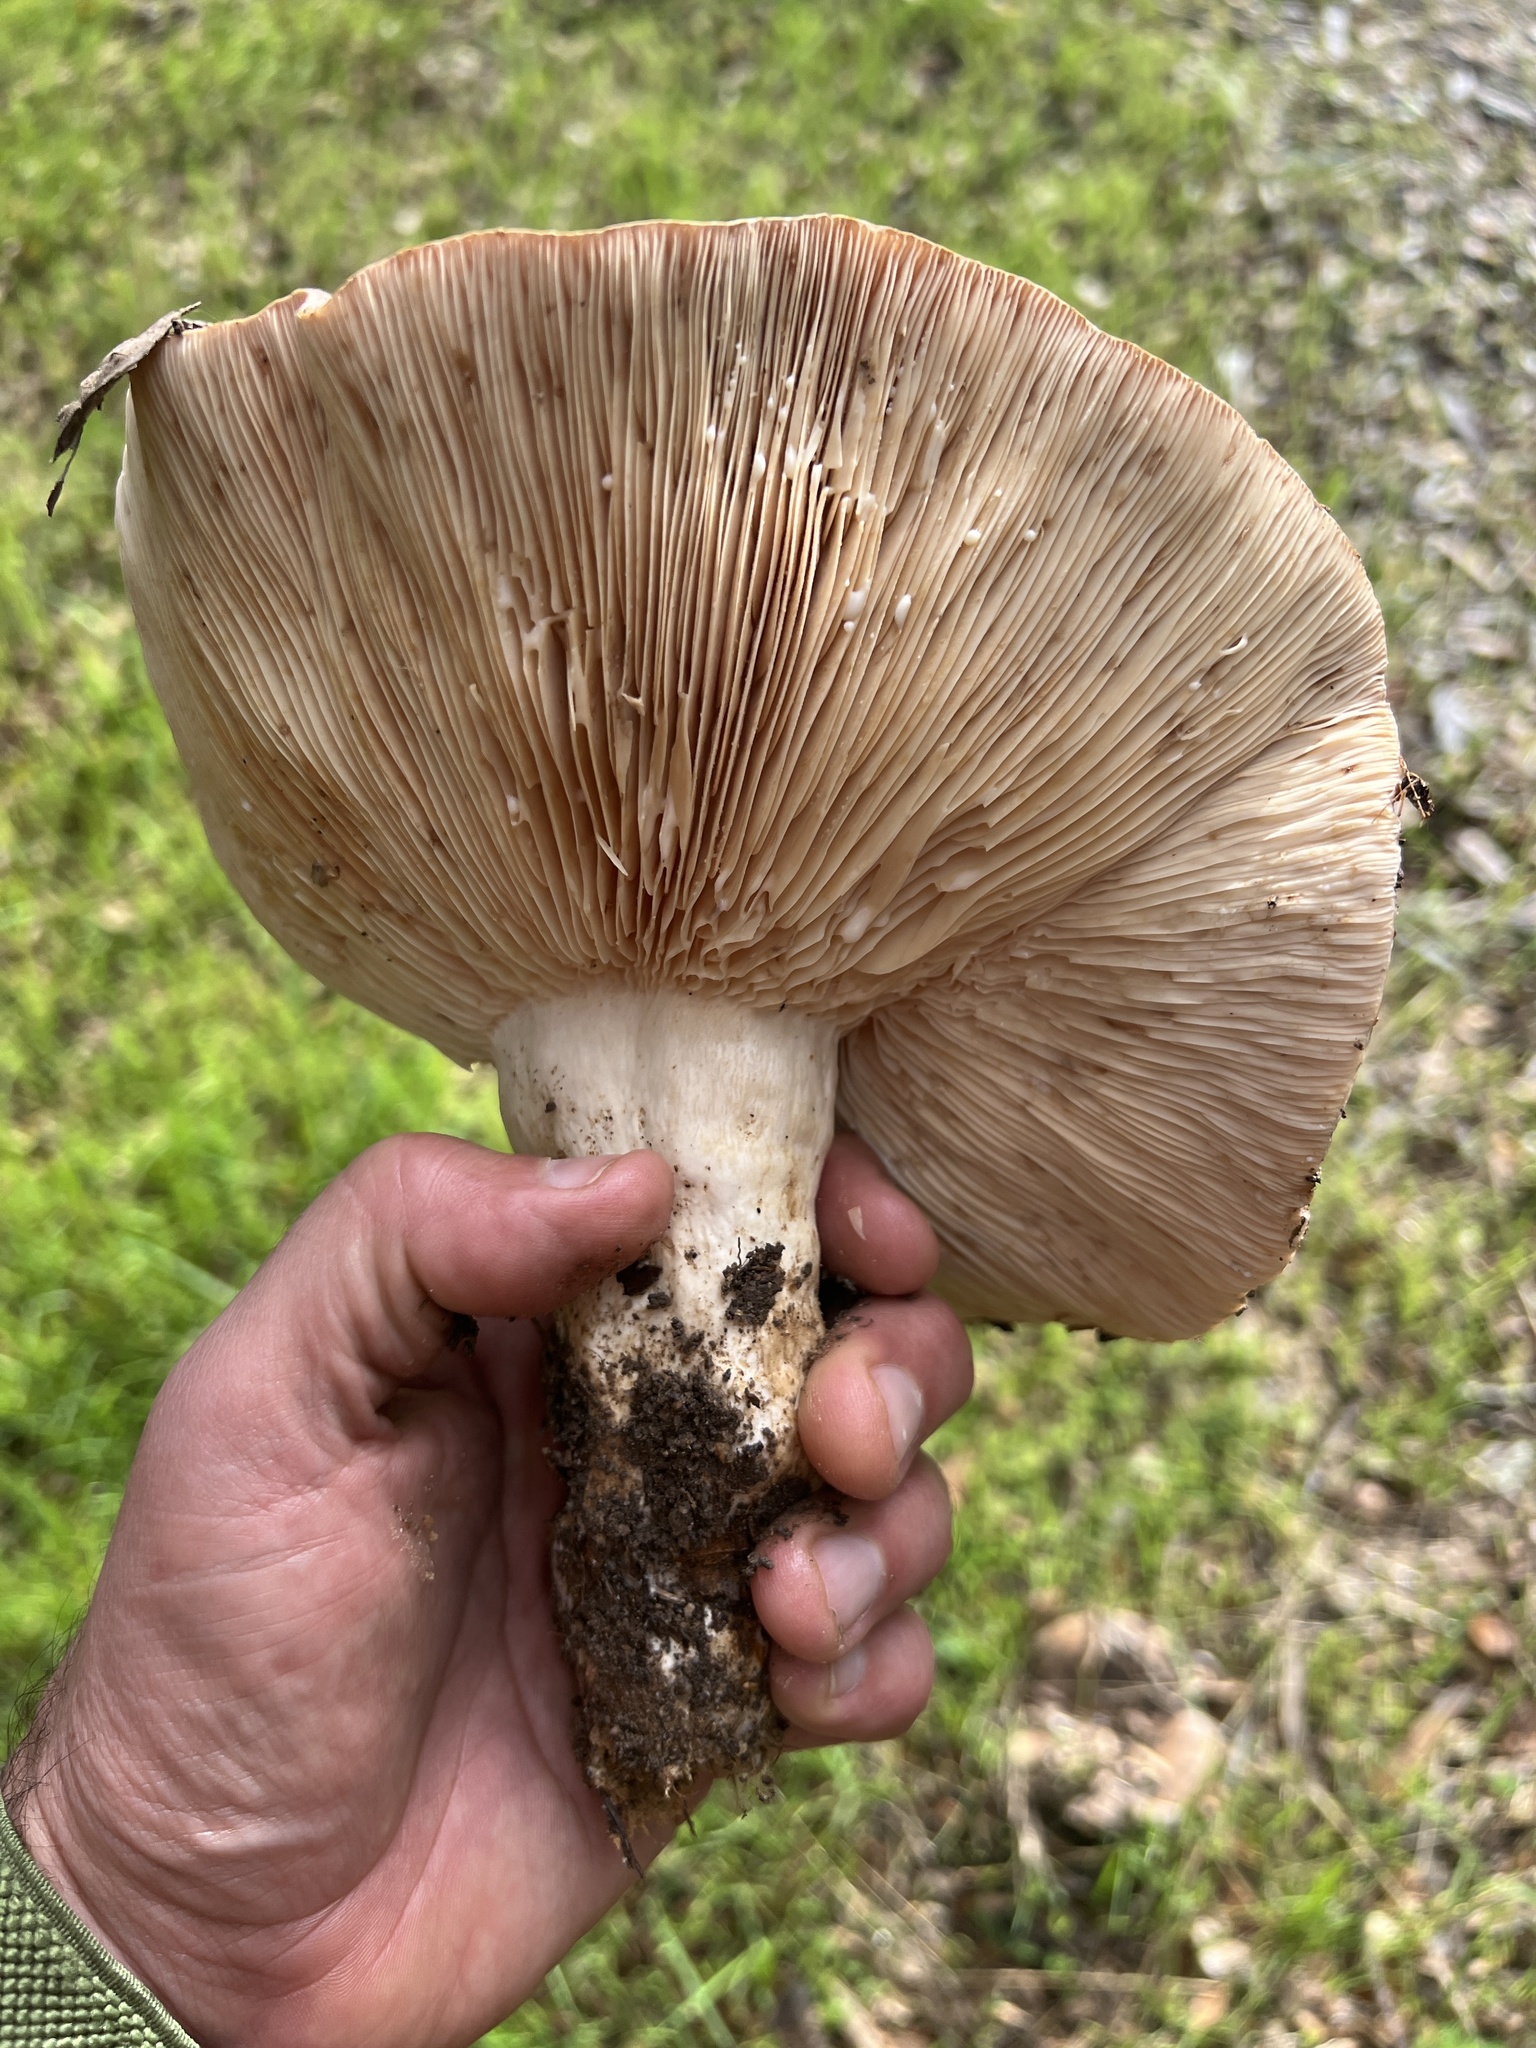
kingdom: Fungi
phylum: Basidiomycota
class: Agaricomycetes
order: Russulales
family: Russulaceae
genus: Lactarius
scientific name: Lactarius argillaceifolius
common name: Clay-gilled milkcap
